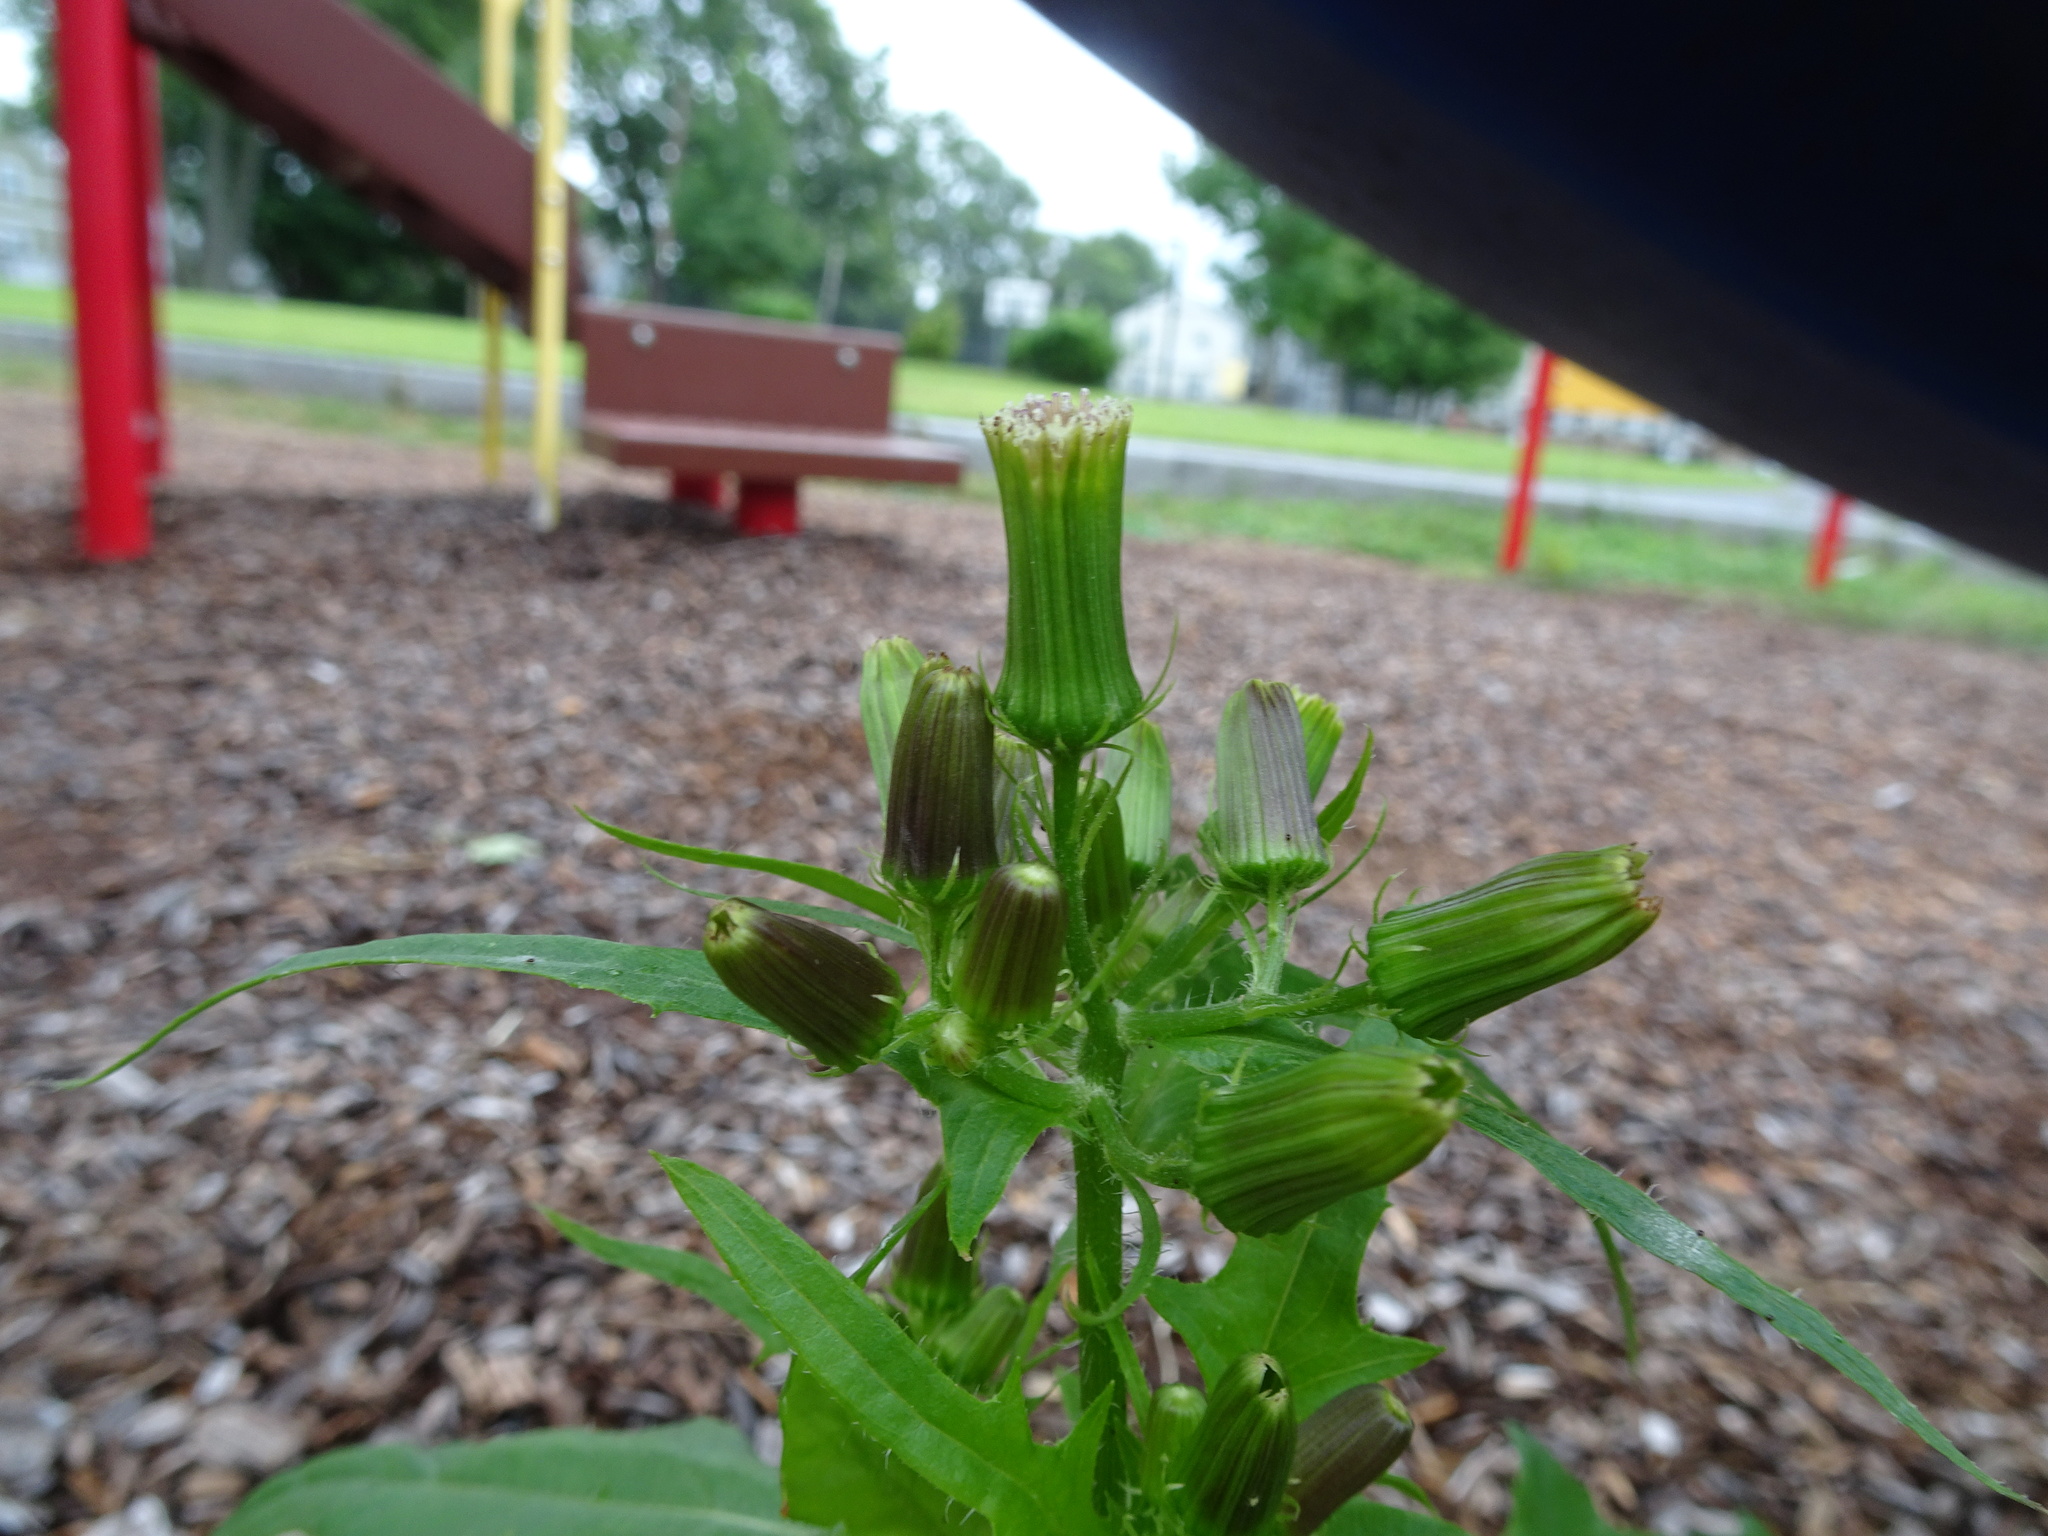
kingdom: Plantae
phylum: Tracheophyta
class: Magnoliopsida
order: Asterales
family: Asteraceae
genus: Erechtites
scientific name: Erechtites hieraciifolius
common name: American burnweed
